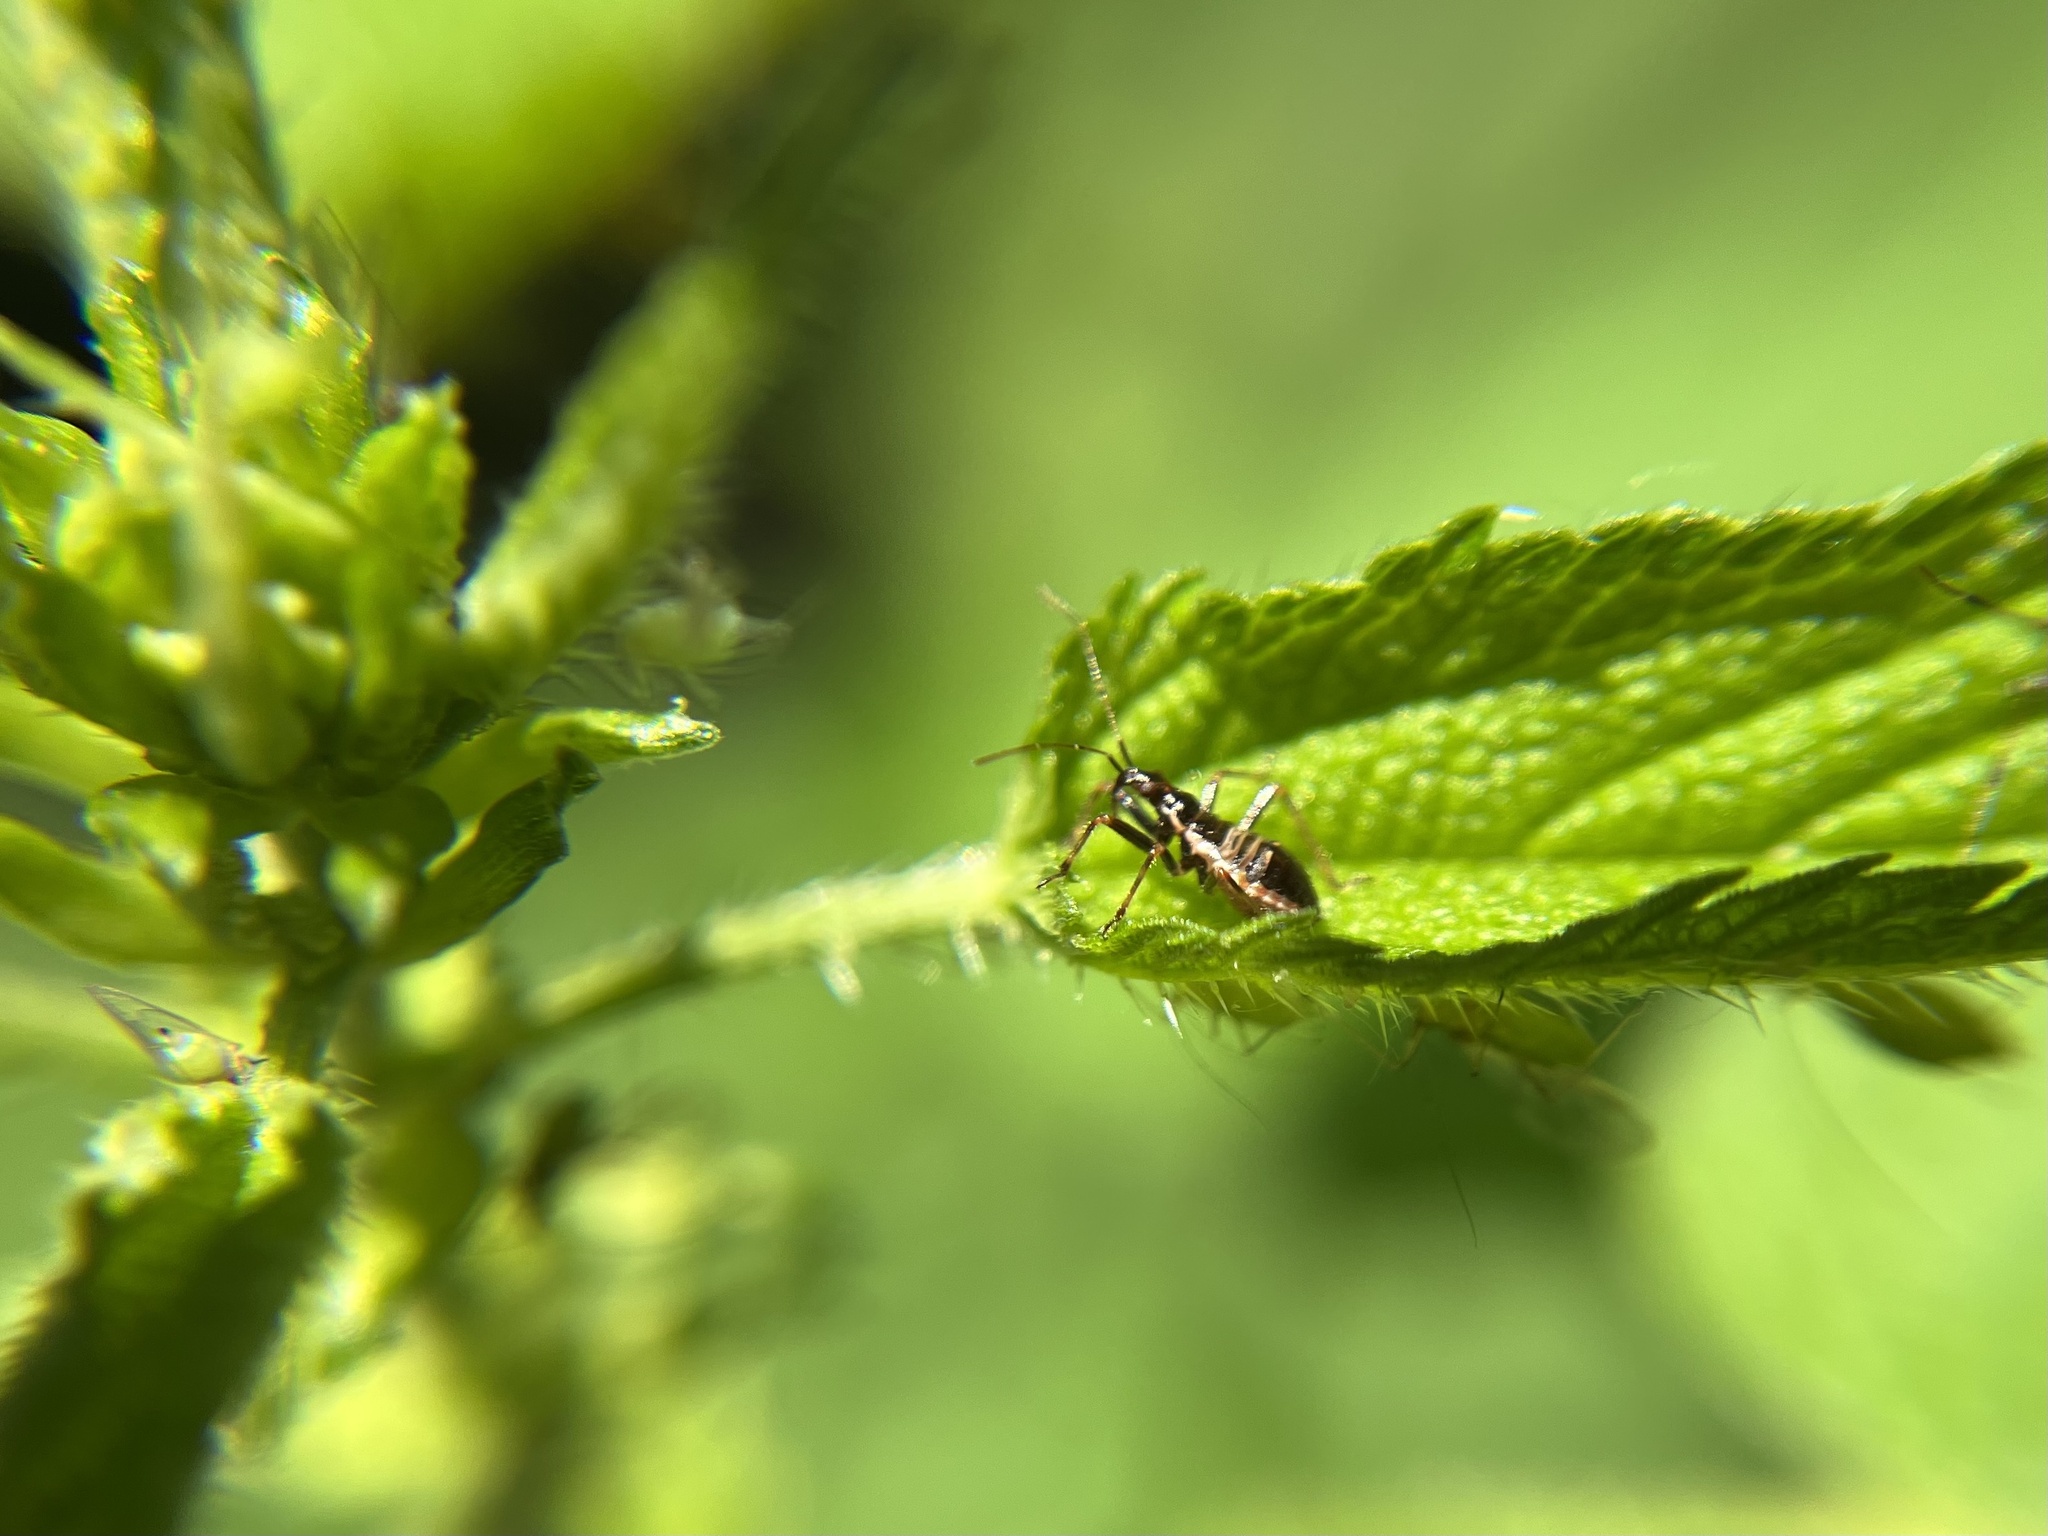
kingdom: Animalia
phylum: Arthropoda
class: Insecta
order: Hemiptera
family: Nabidae
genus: Himacerus
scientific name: Himacerus apterus
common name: Tree damsel bug
